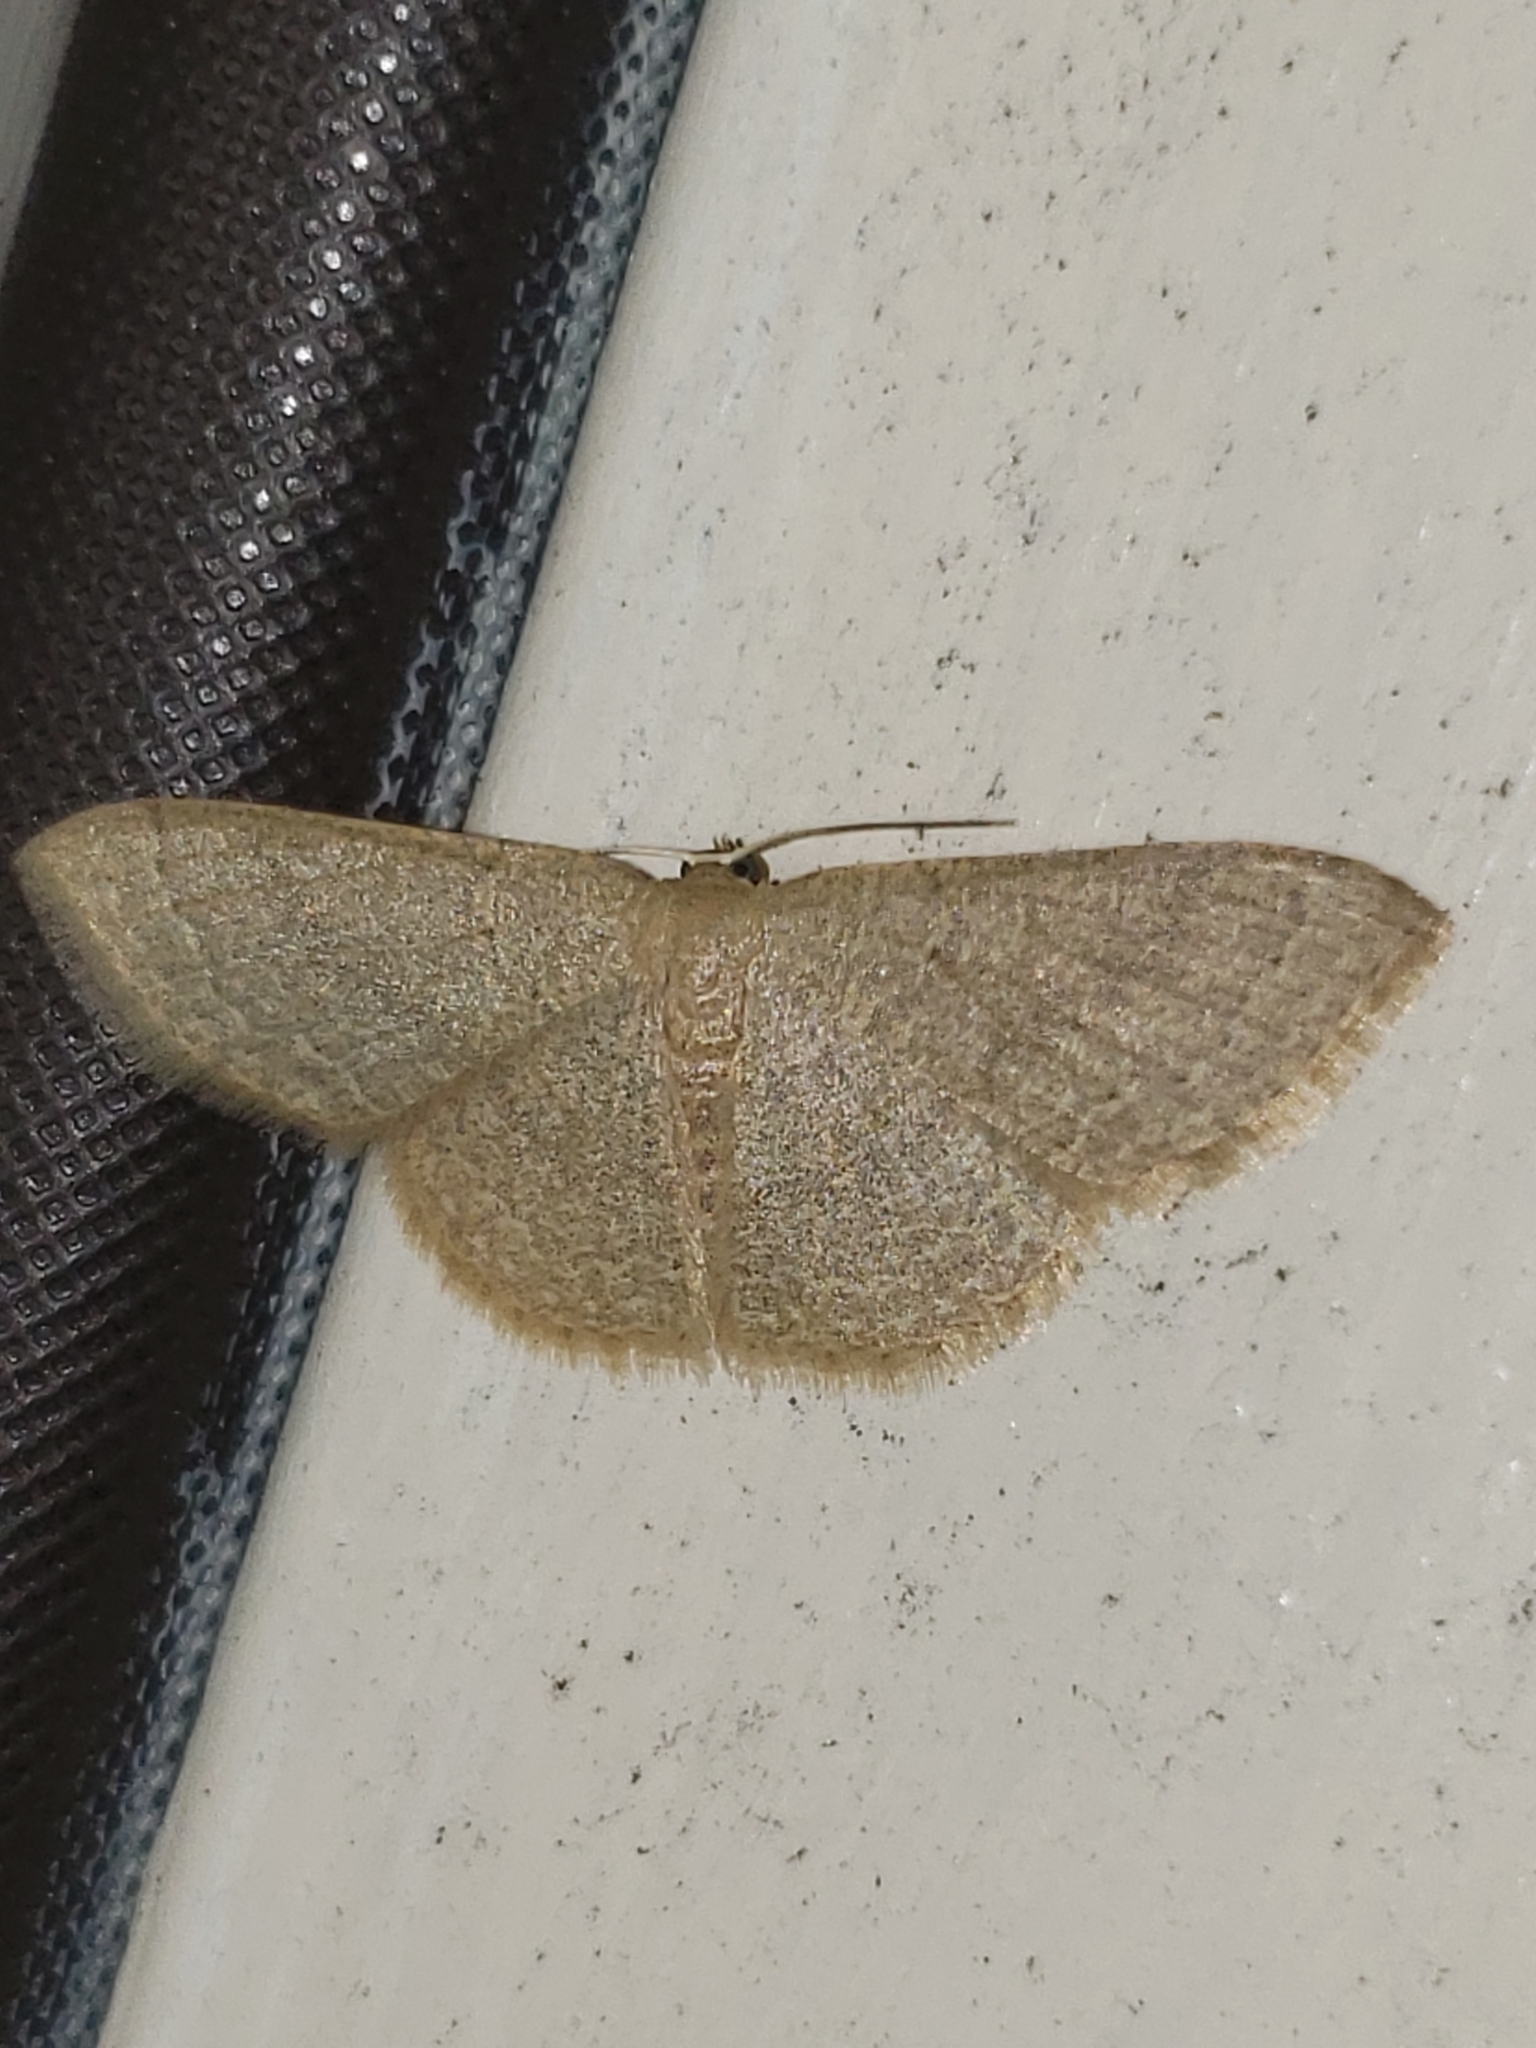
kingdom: Animalia
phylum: Arthropoda
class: Insecta
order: Lepidoptera
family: Geometridae
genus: Pleuroprucha
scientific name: Pleuroprucha insulsaria
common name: Common tan wave
